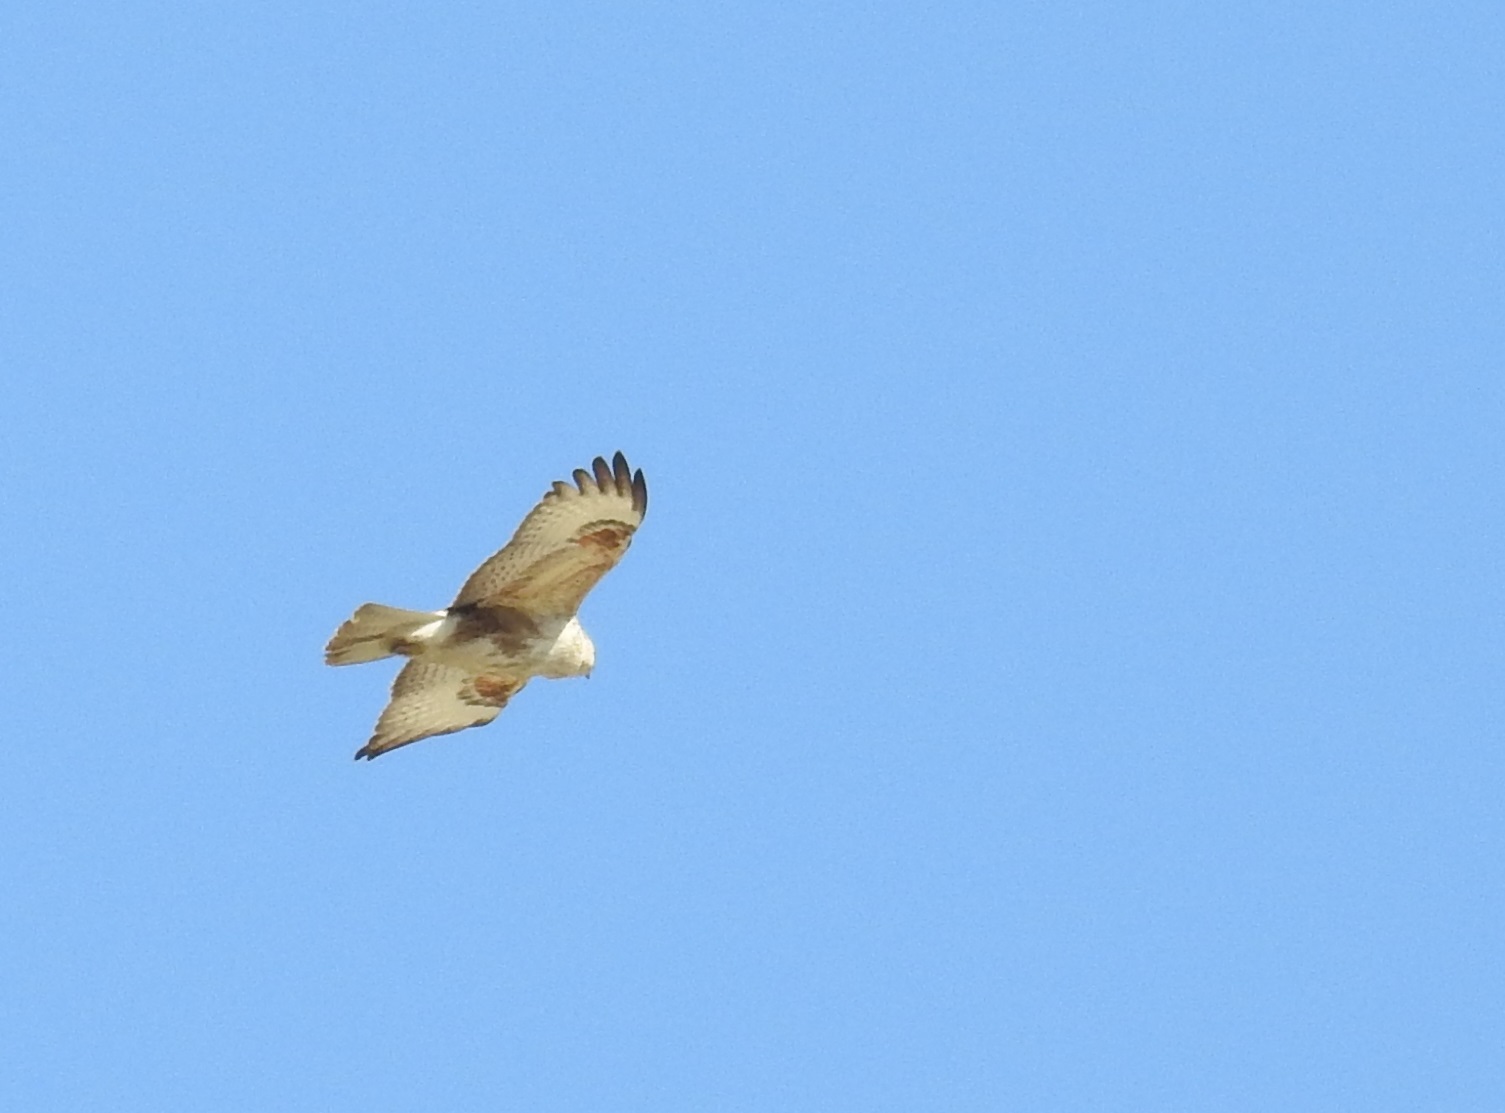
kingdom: Animalia
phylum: Chordata
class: Aves
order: Accipitriformes
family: Accipitridae
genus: Buteo
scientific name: Buteo rufinus
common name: Long-legged buzzard
